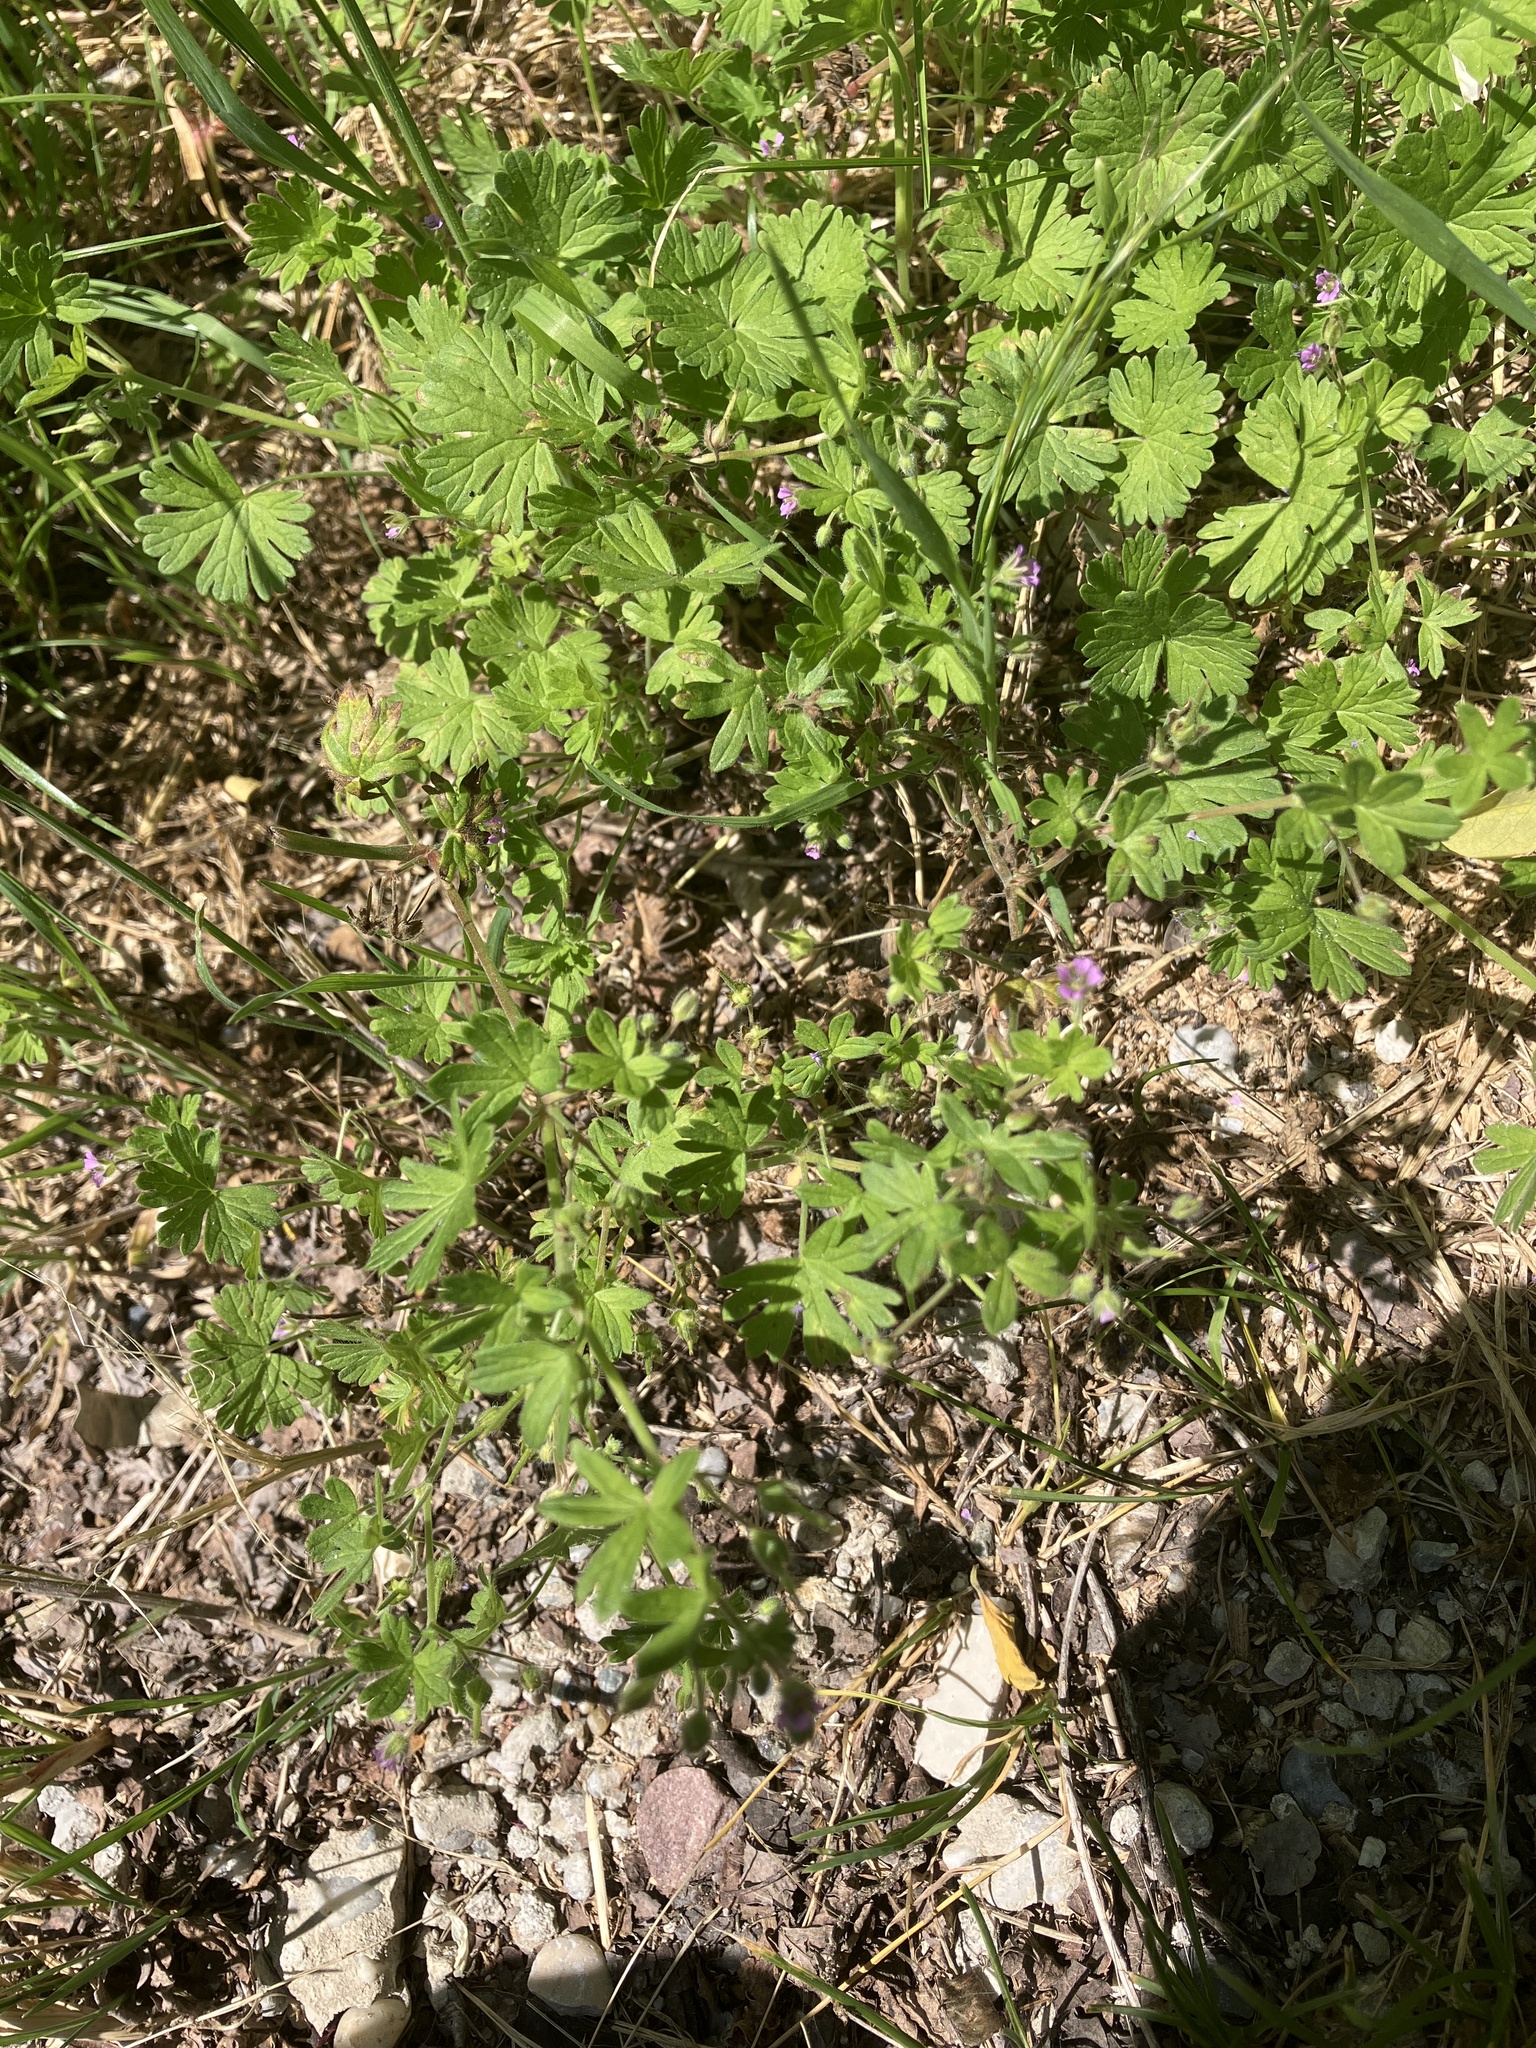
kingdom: Plantae
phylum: Tracheophyta
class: Magnoliopsida
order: Geraniales
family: Geraniaceae
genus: Geranium
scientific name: Geranium pusillum
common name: Small geranium
